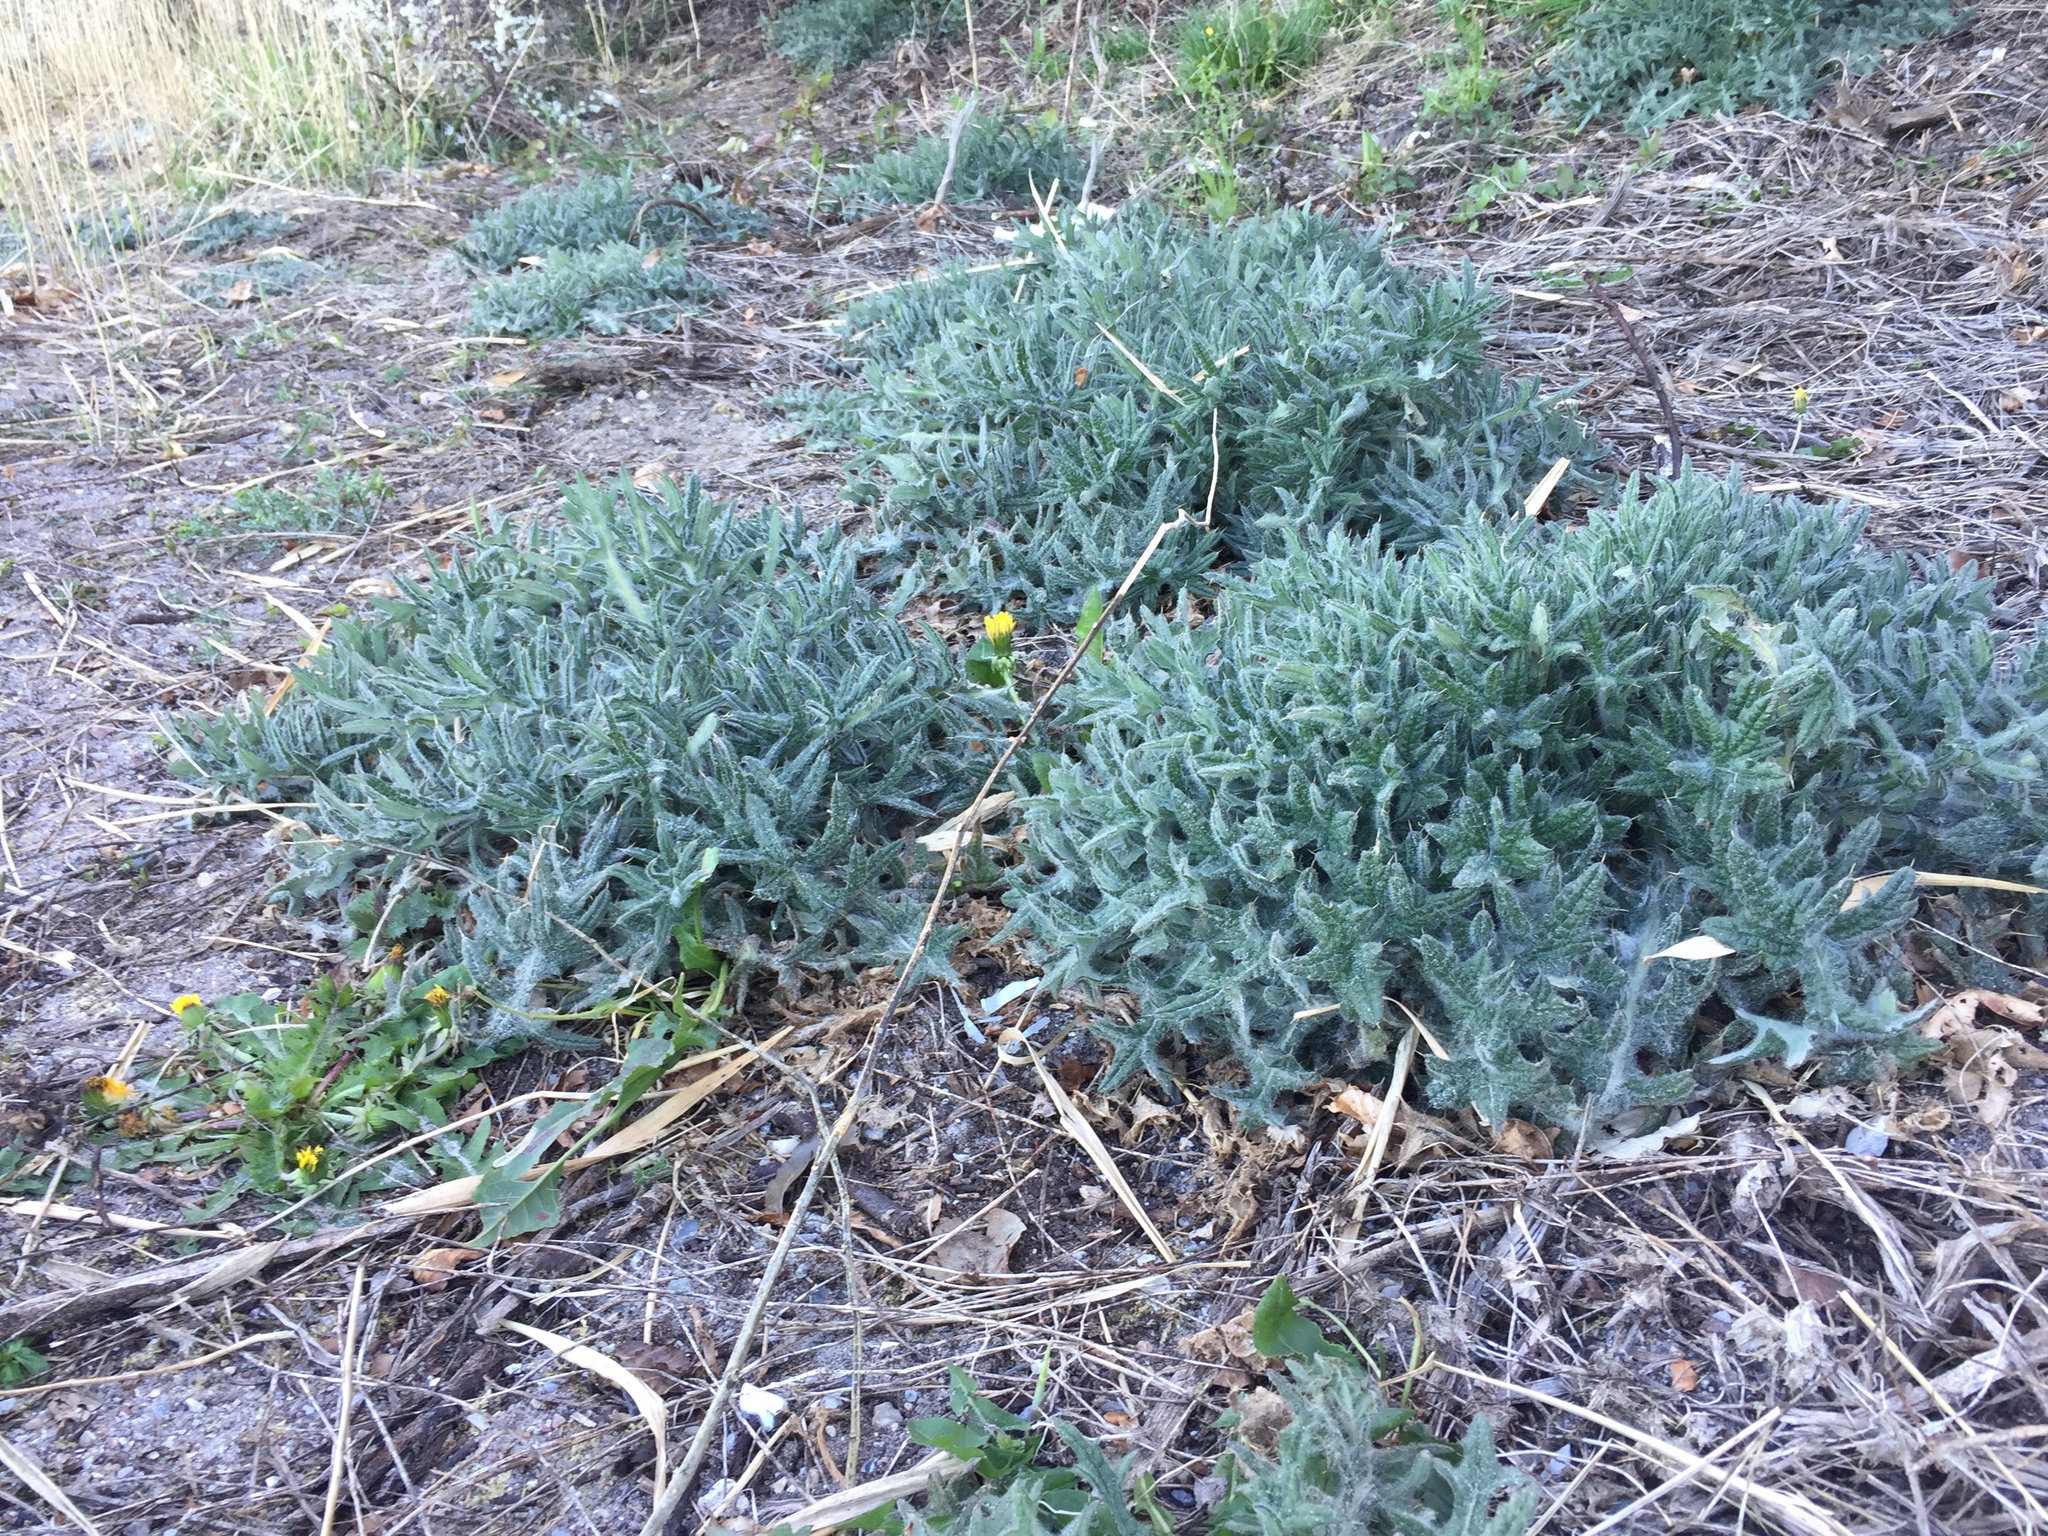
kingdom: Plantae
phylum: Tracheophyta
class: Magnoliopsida
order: Asterales
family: Asteraceae
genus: Cirsium
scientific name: Cirsium vulgare
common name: Bull thistle
